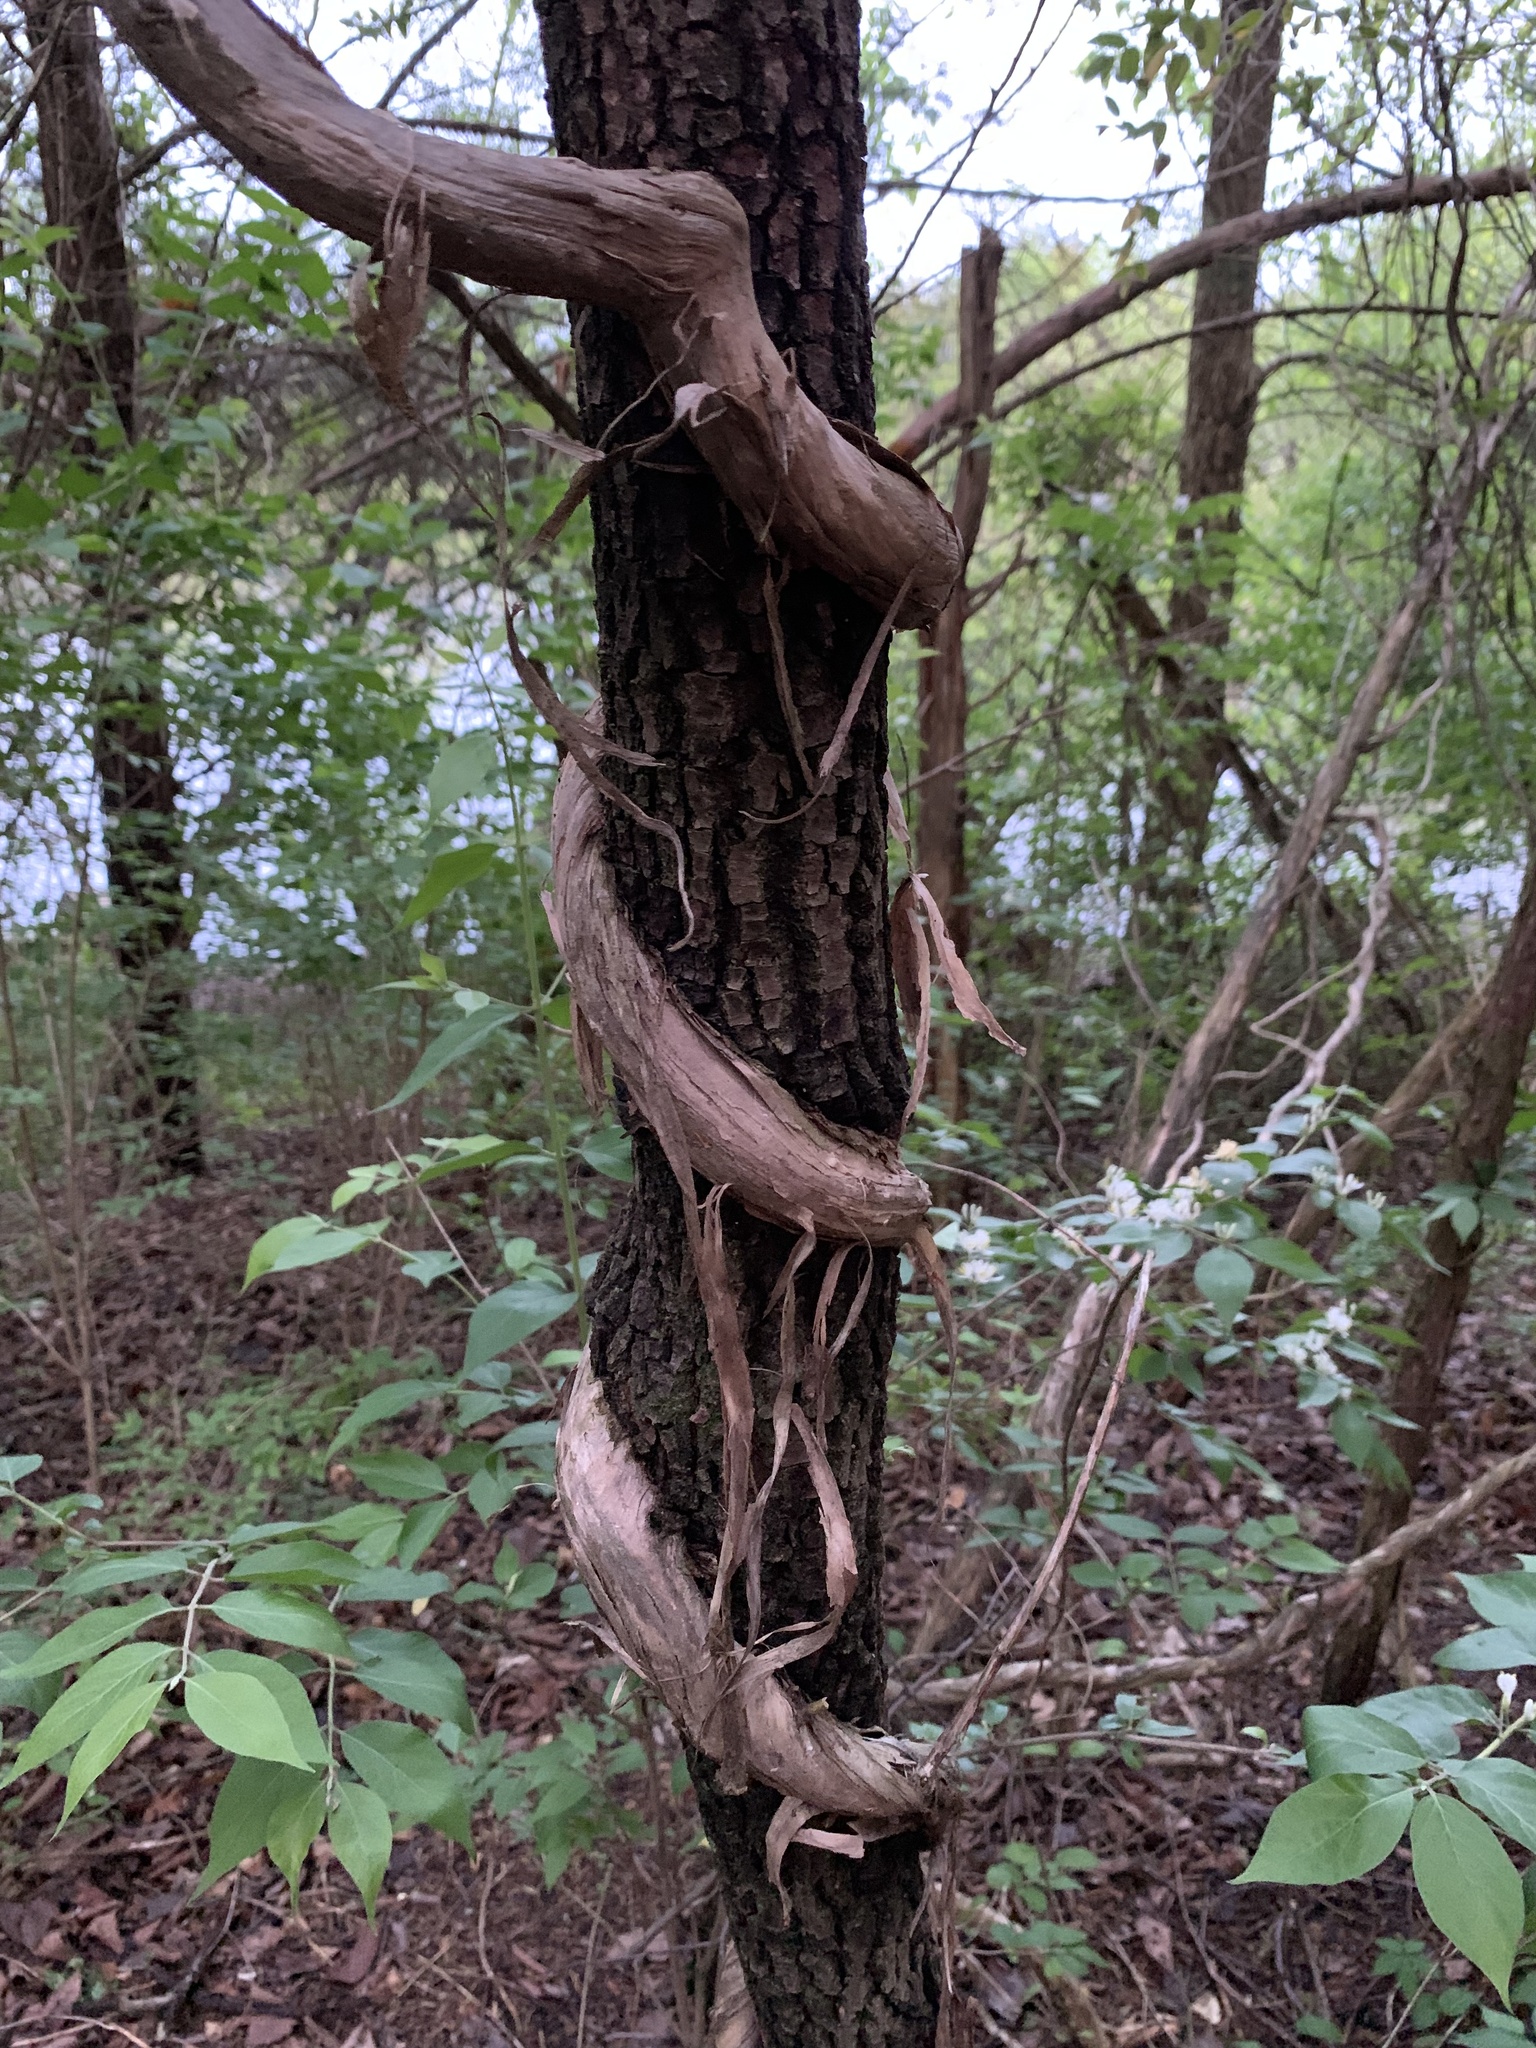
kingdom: Plantae
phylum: Tracheophyta
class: Magnoliopsida
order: Dipsacales
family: Caprifoliaceae
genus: Lonicera
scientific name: Lonicera japonica
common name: Japanese honeysuckle
